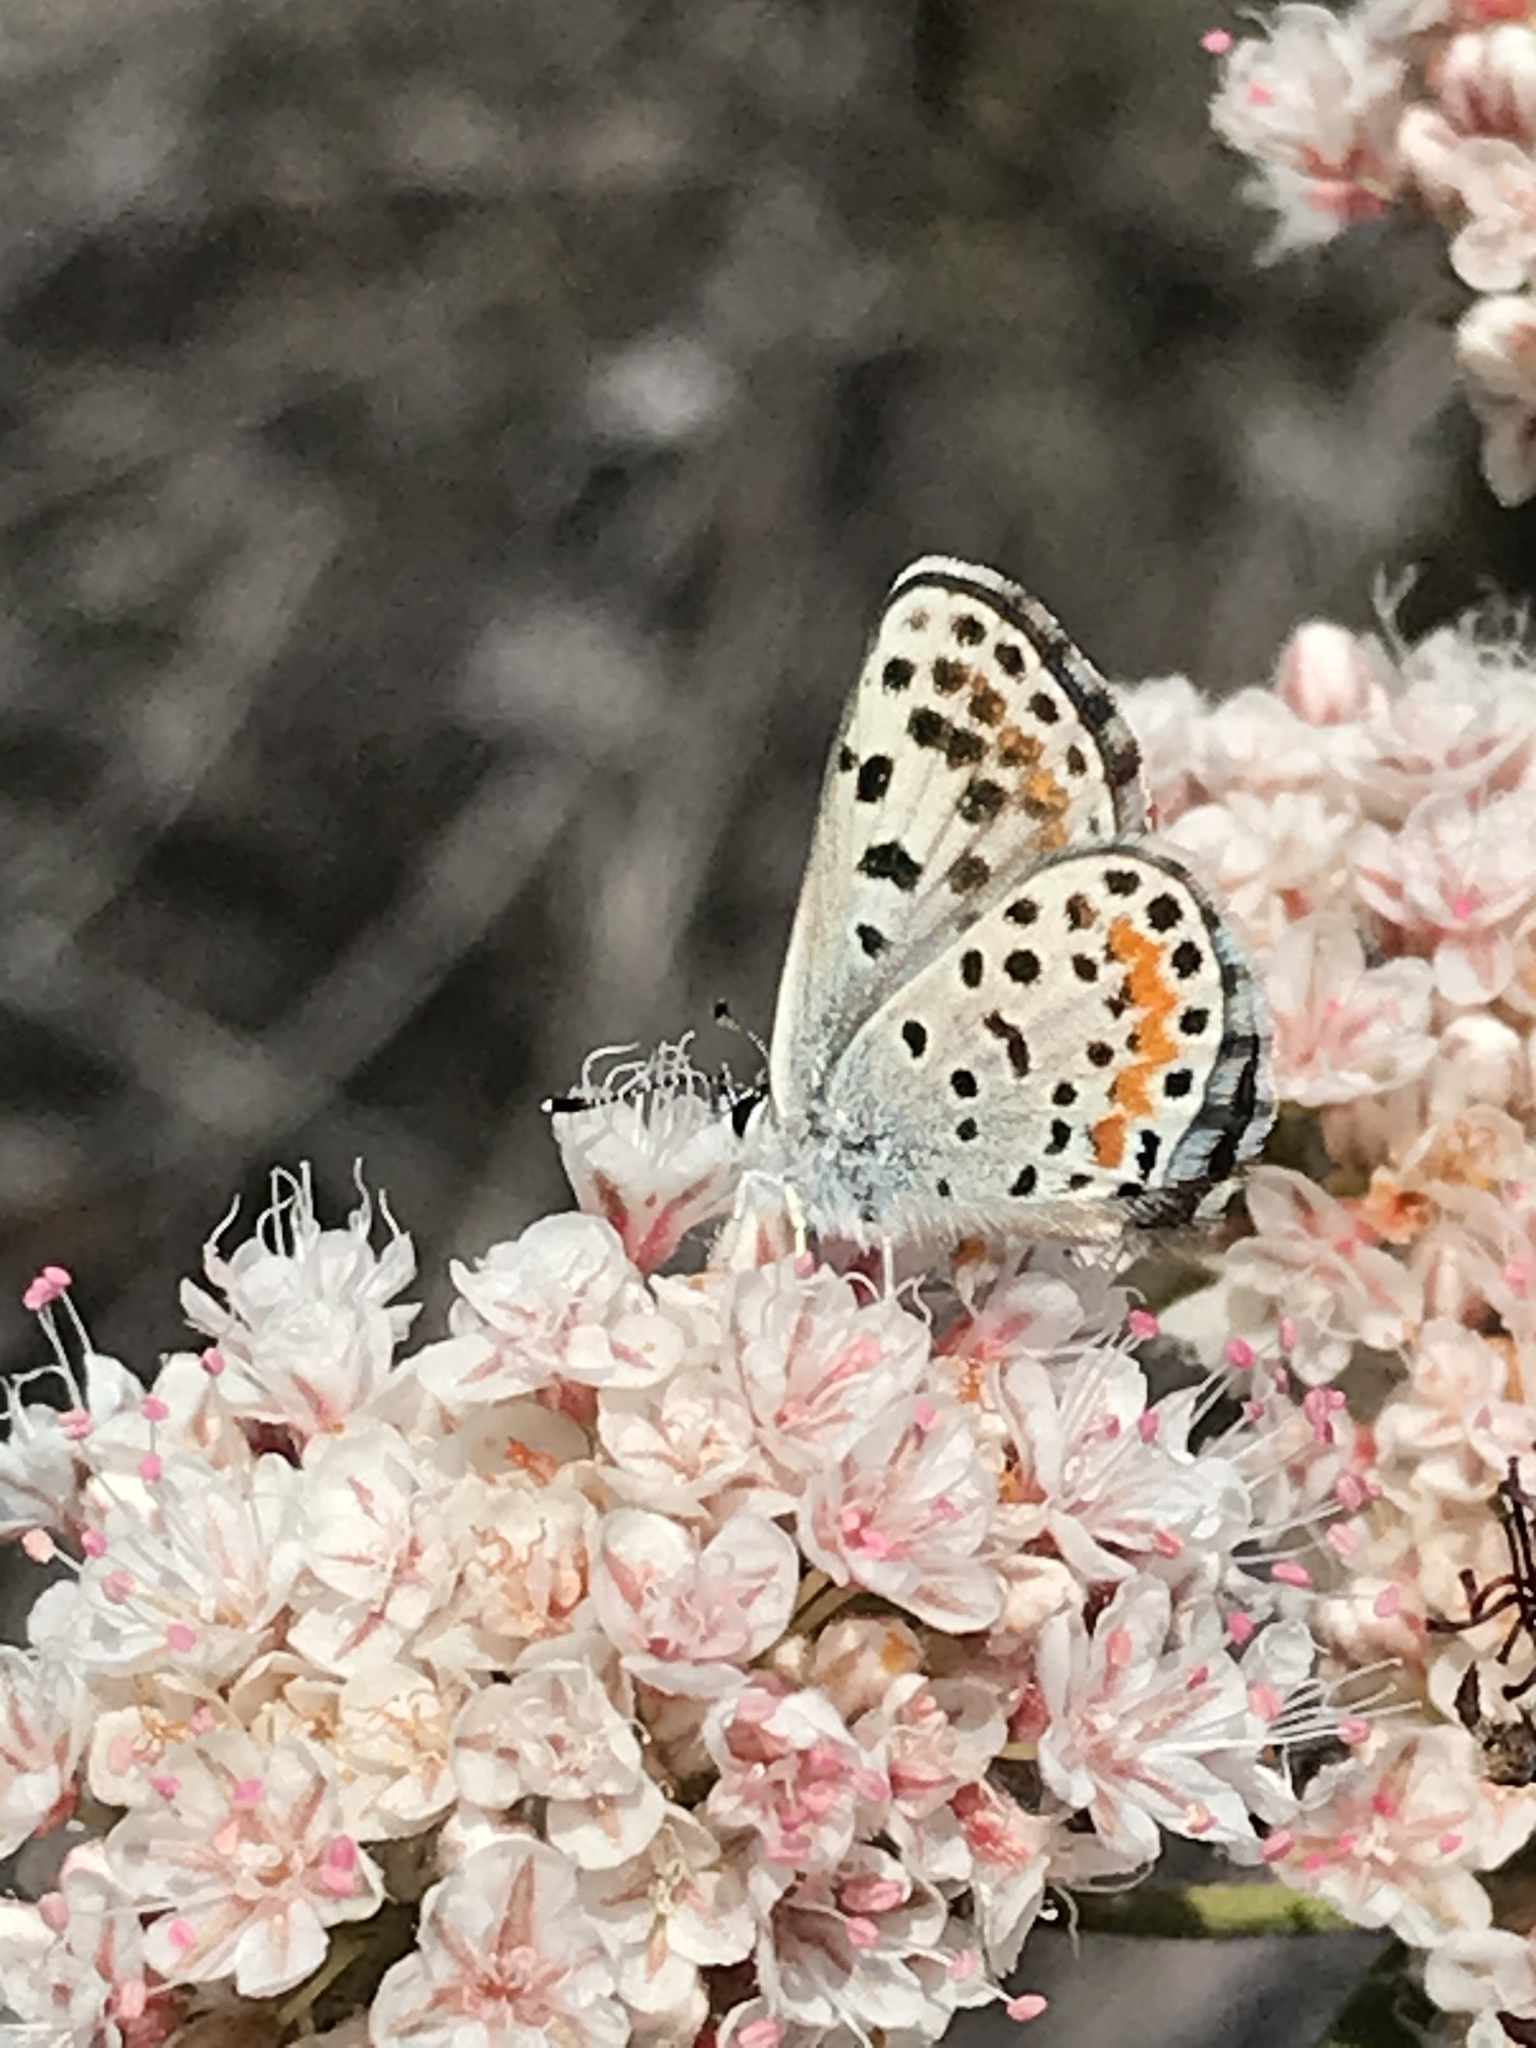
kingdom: Animalia
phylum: Arthropoda
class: Insecta
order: Lepidoptera
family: Lycaenidae
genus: Philotes
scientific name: Philotes bernardino
